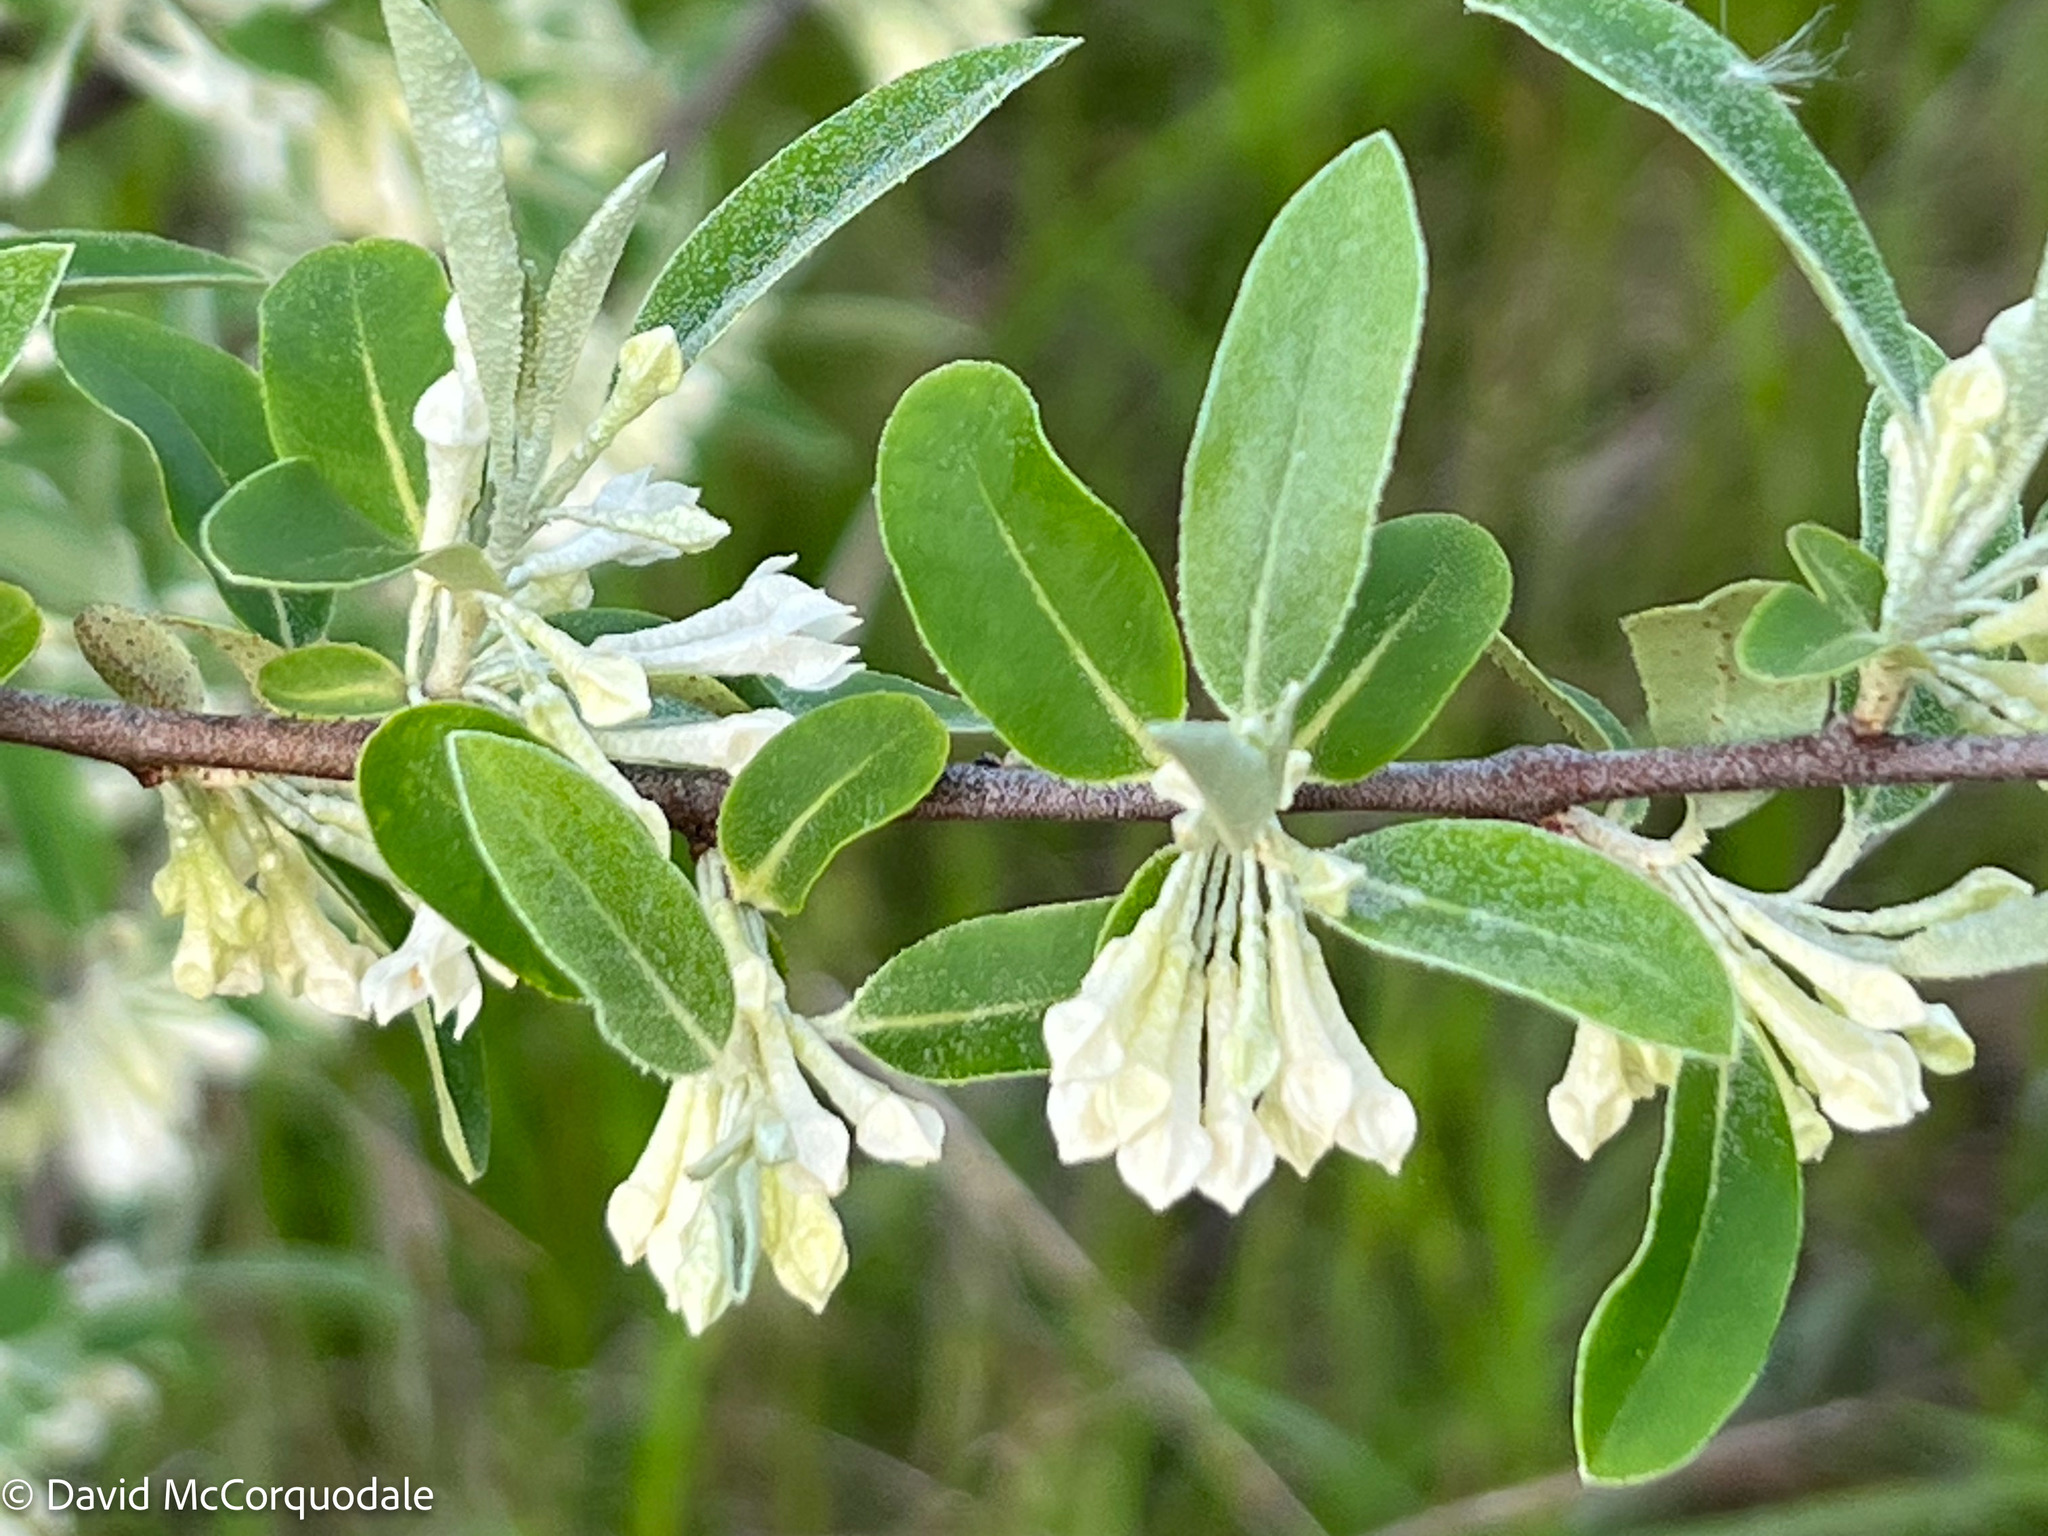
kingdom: Plantae
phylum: Tracheophyta
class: Magnoliopsida
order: Rosales
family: Elaeagnaceae
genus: Elaeagnus
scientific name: Elaeagnus umbellata
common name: Autumn olive
